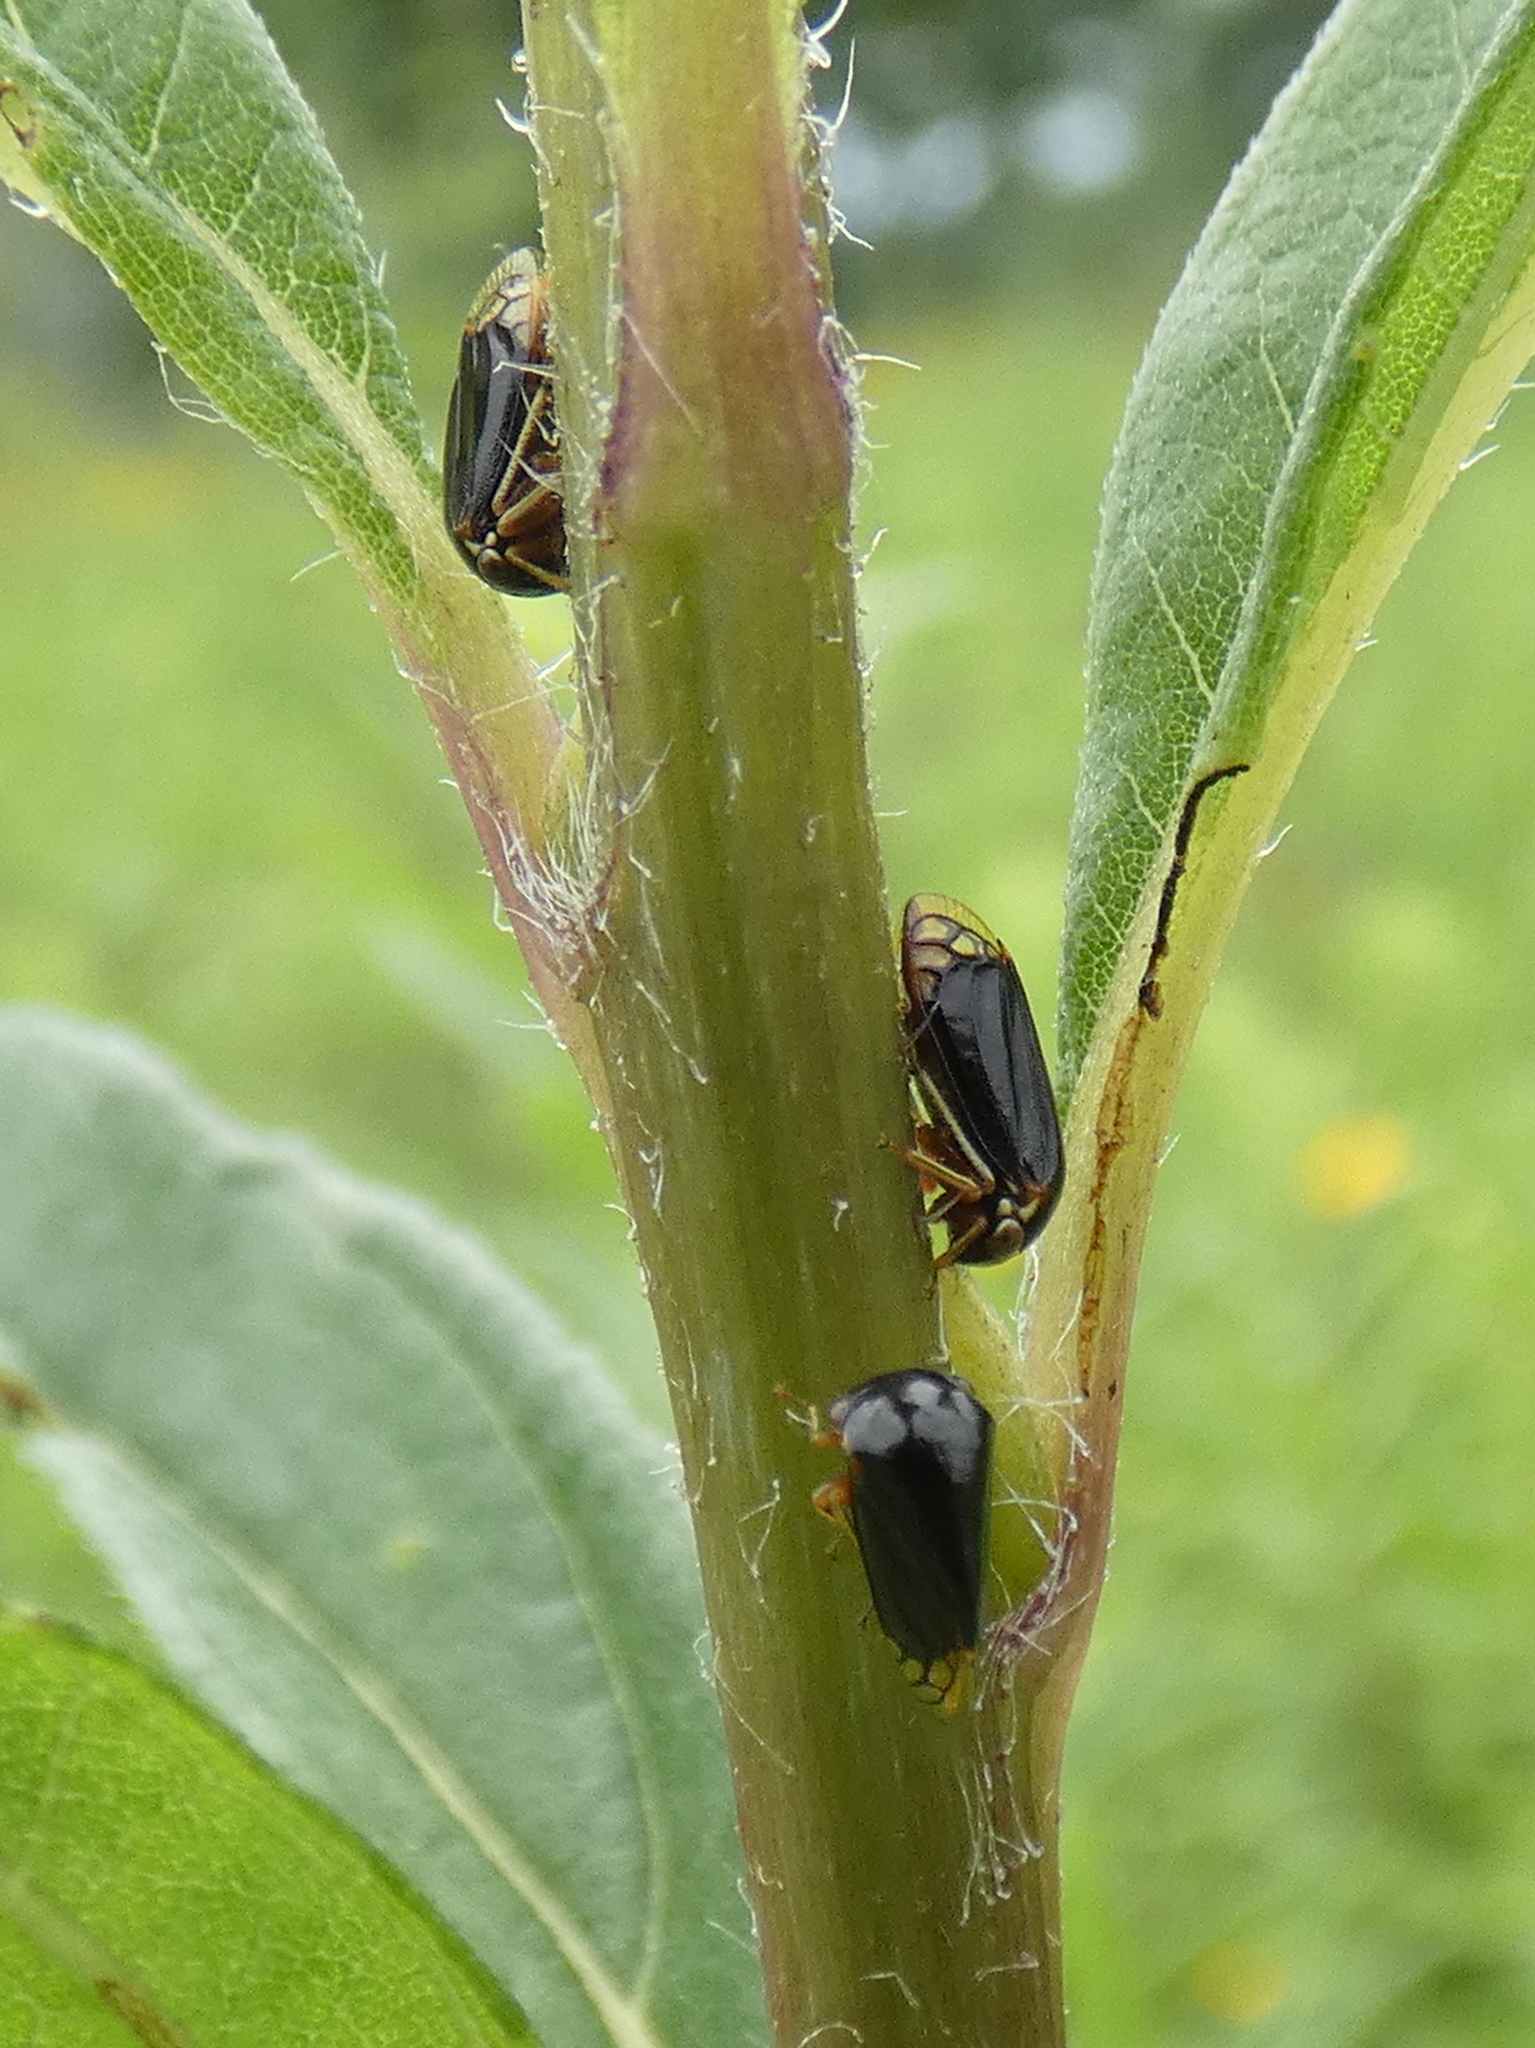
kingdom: Animalia
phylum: Arthropoda
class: Insecta
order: Hemiptera
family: Membracidae
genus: Acutalis
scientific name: Acutalis tartarea
